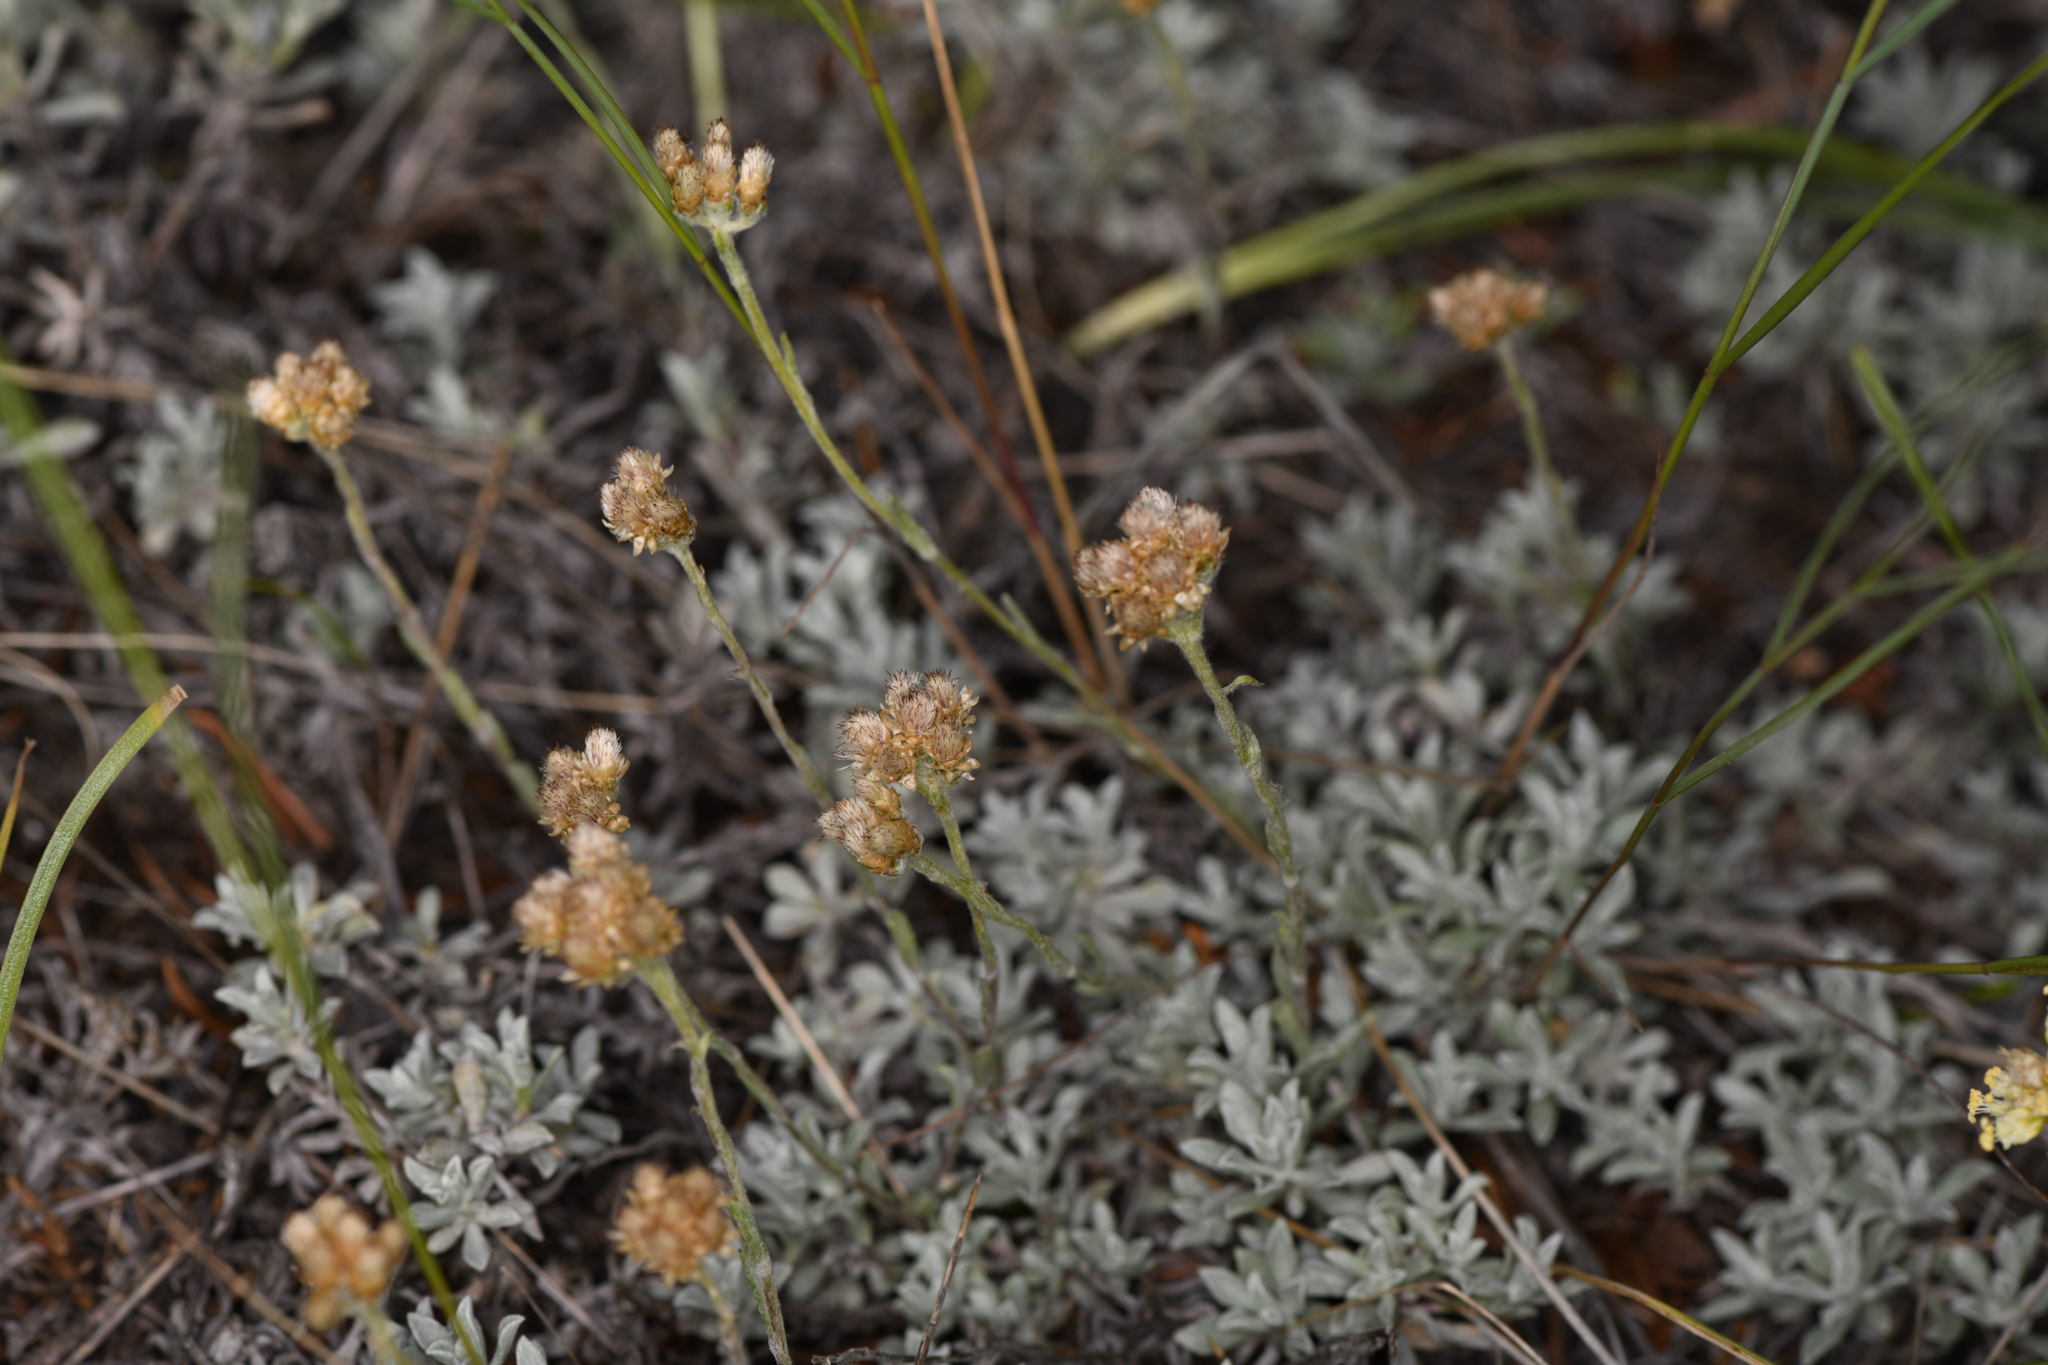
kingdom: Plantae
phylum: Tracheophyta
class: Magnoliopsida
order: Asterales
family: Asteraceae
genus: Antennaria
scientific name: Antennaria umbrinella
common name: Brown pussytoes
